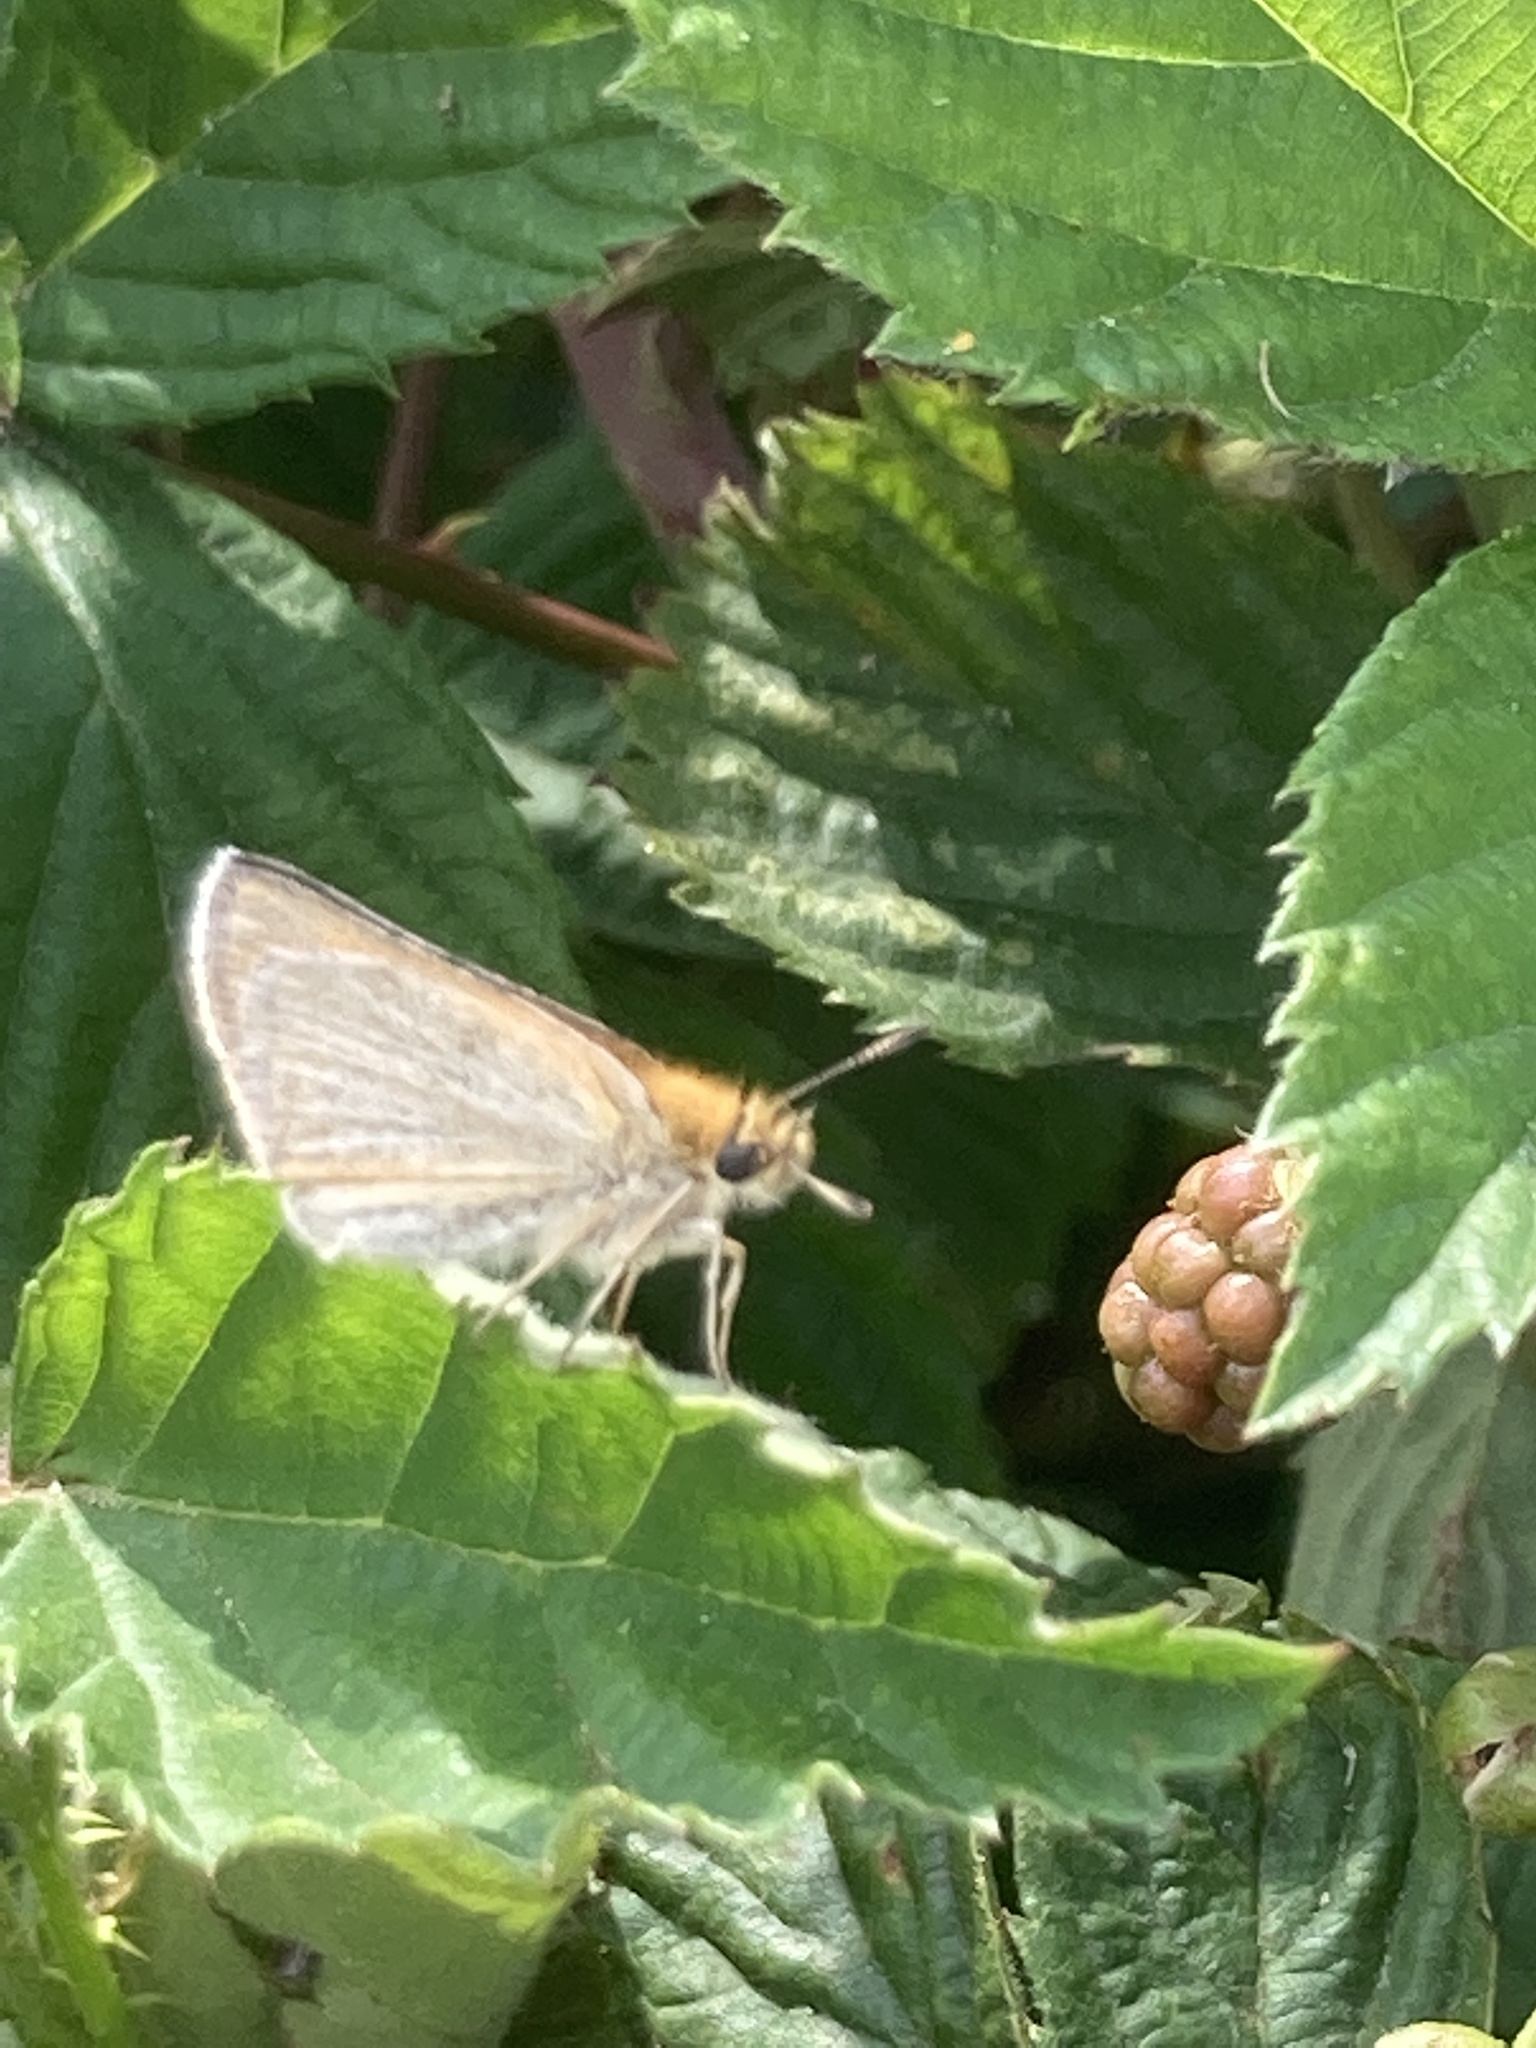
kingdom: Animalia
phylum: Arthropoda
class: Insecta
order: Lepidoptera
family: Hesperiidae
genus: Thymelicus
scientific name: Thymelicus lineola
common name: Essex skipper
